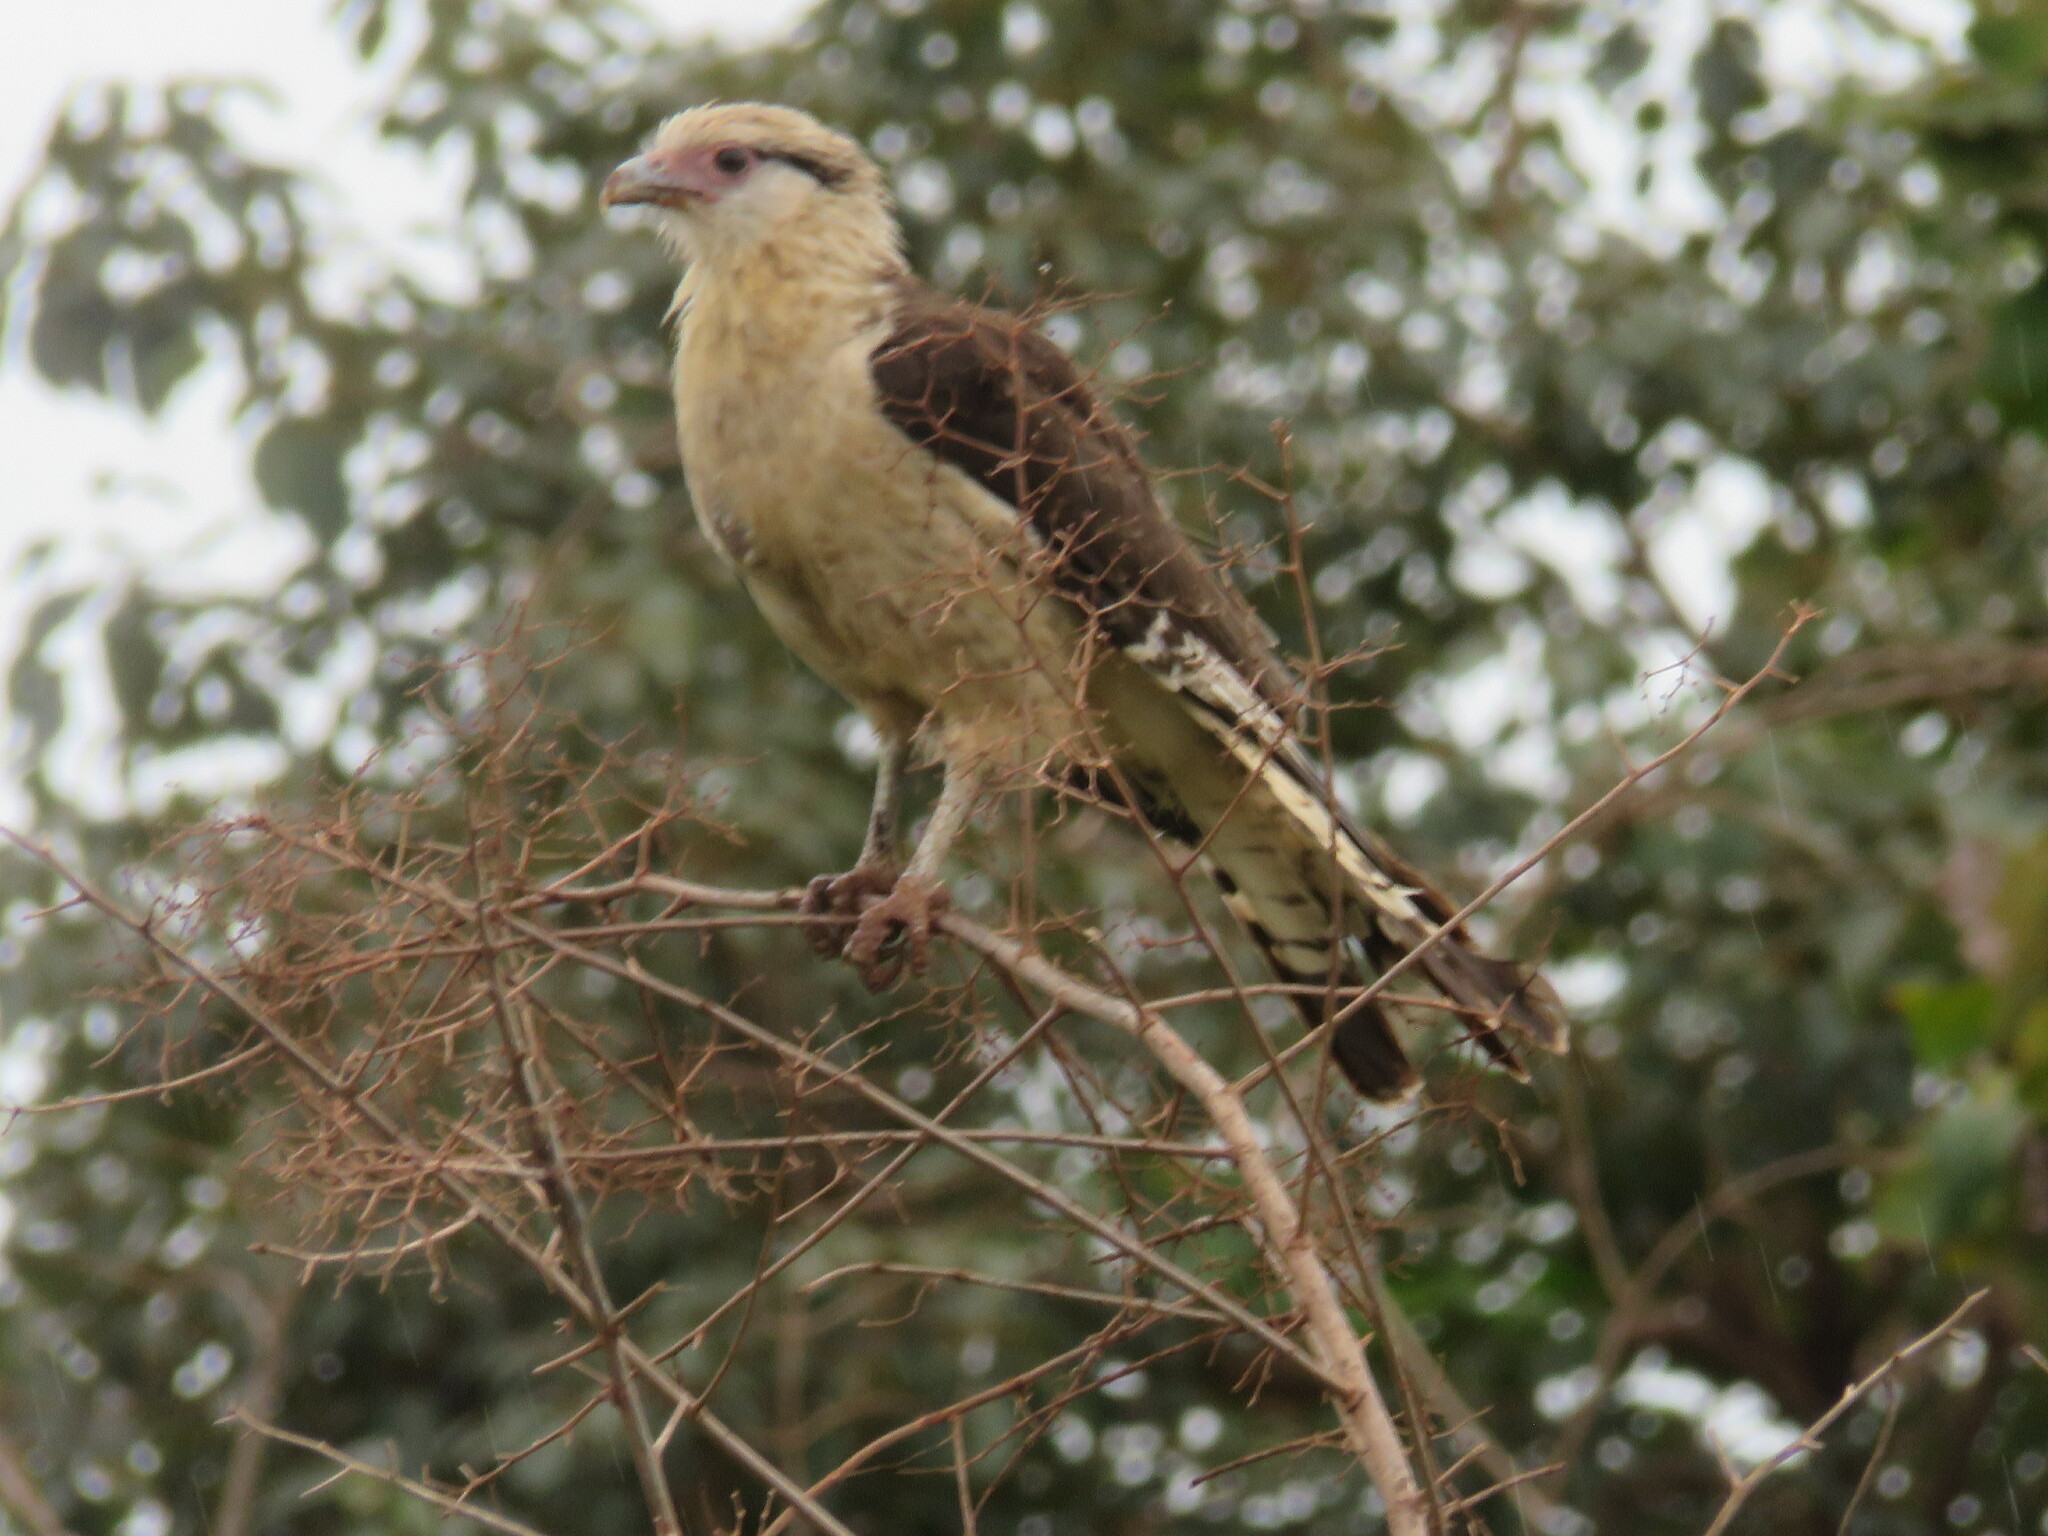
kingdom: Animalia
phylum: Chordata
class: Aves
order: Falconiformes
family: Falconidae
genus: Daptrius
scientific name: Daptrius
